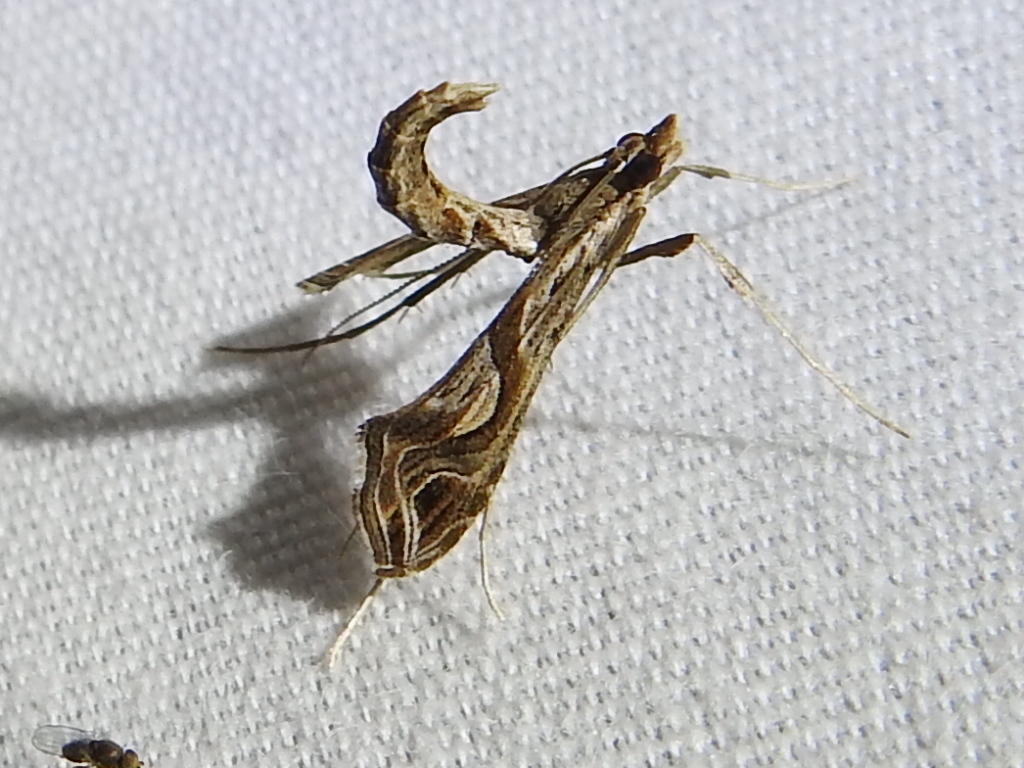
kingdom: Animalia
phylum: Arthropoda
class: Insecta
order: Lepidoptera
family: Crambidae
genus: Lineodes
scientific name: Lineodes integra
